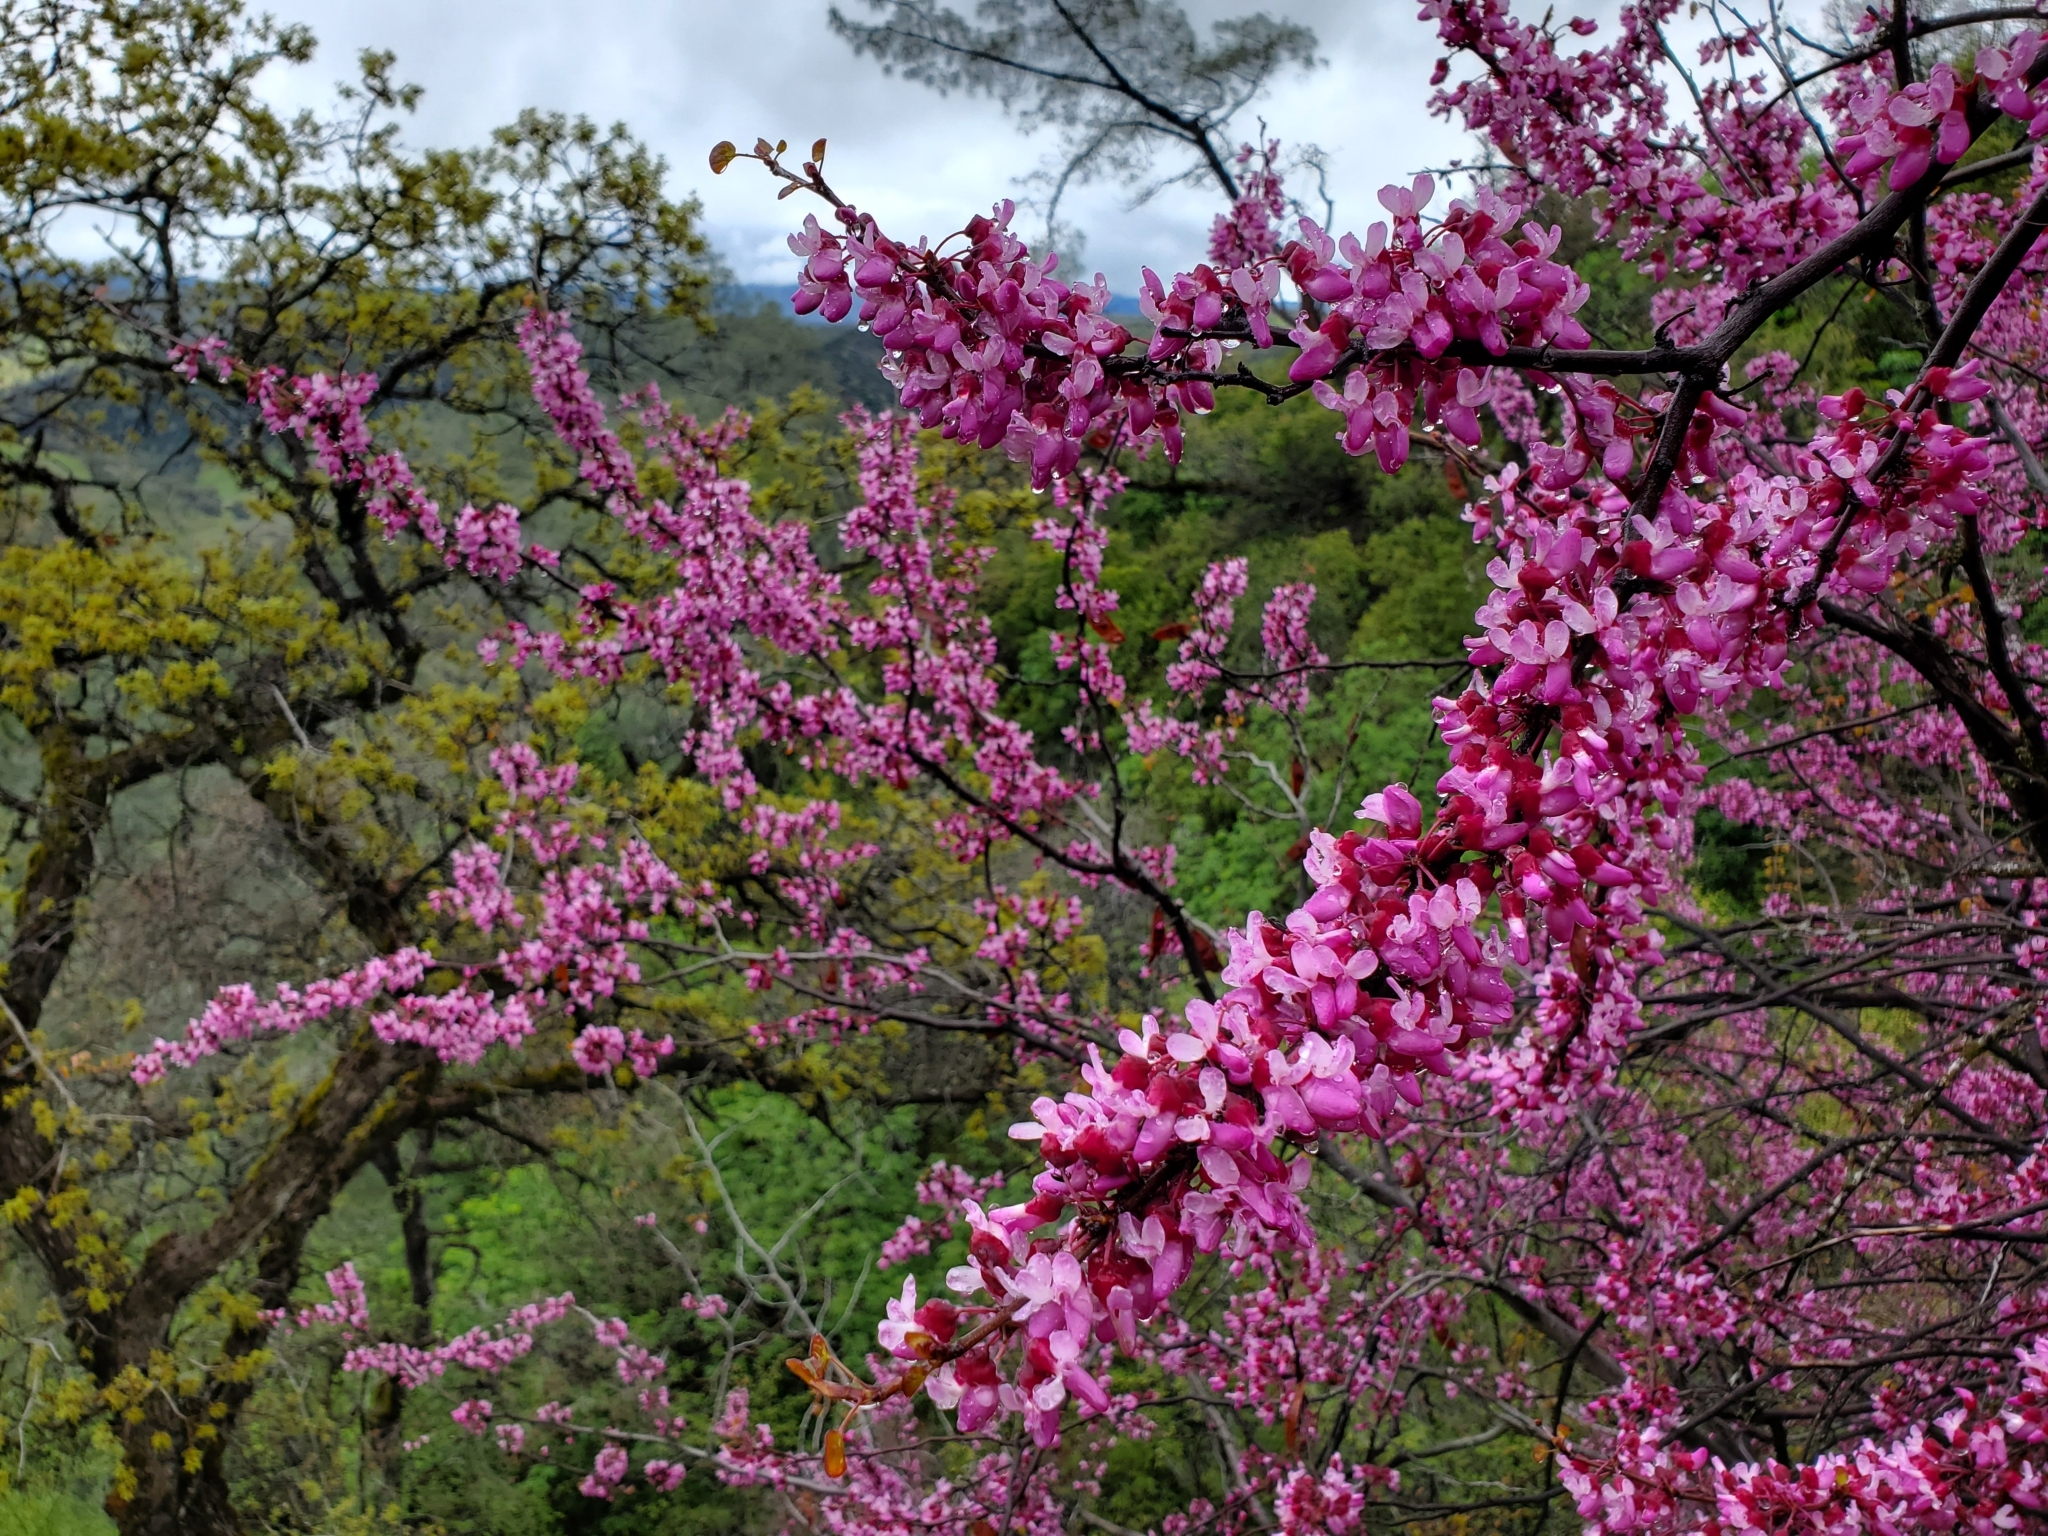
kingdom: Plantae
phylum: Tracheophyta
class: Magnoliopsida
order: Fabales
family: Fabaceae
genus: Cercis
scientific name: Cercis occidentalis
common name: California redbud
